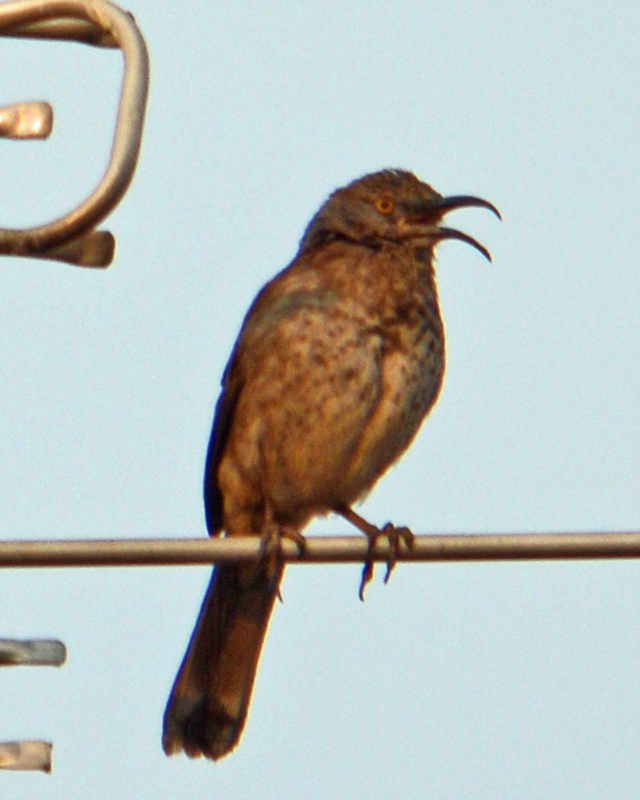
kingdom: Animalia
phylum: Chordata
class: Aves
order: Passeriformes
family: Mimidae
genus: Toxostoma
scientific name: Toxostoma curvirostre
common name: Curve-billed thrasher
